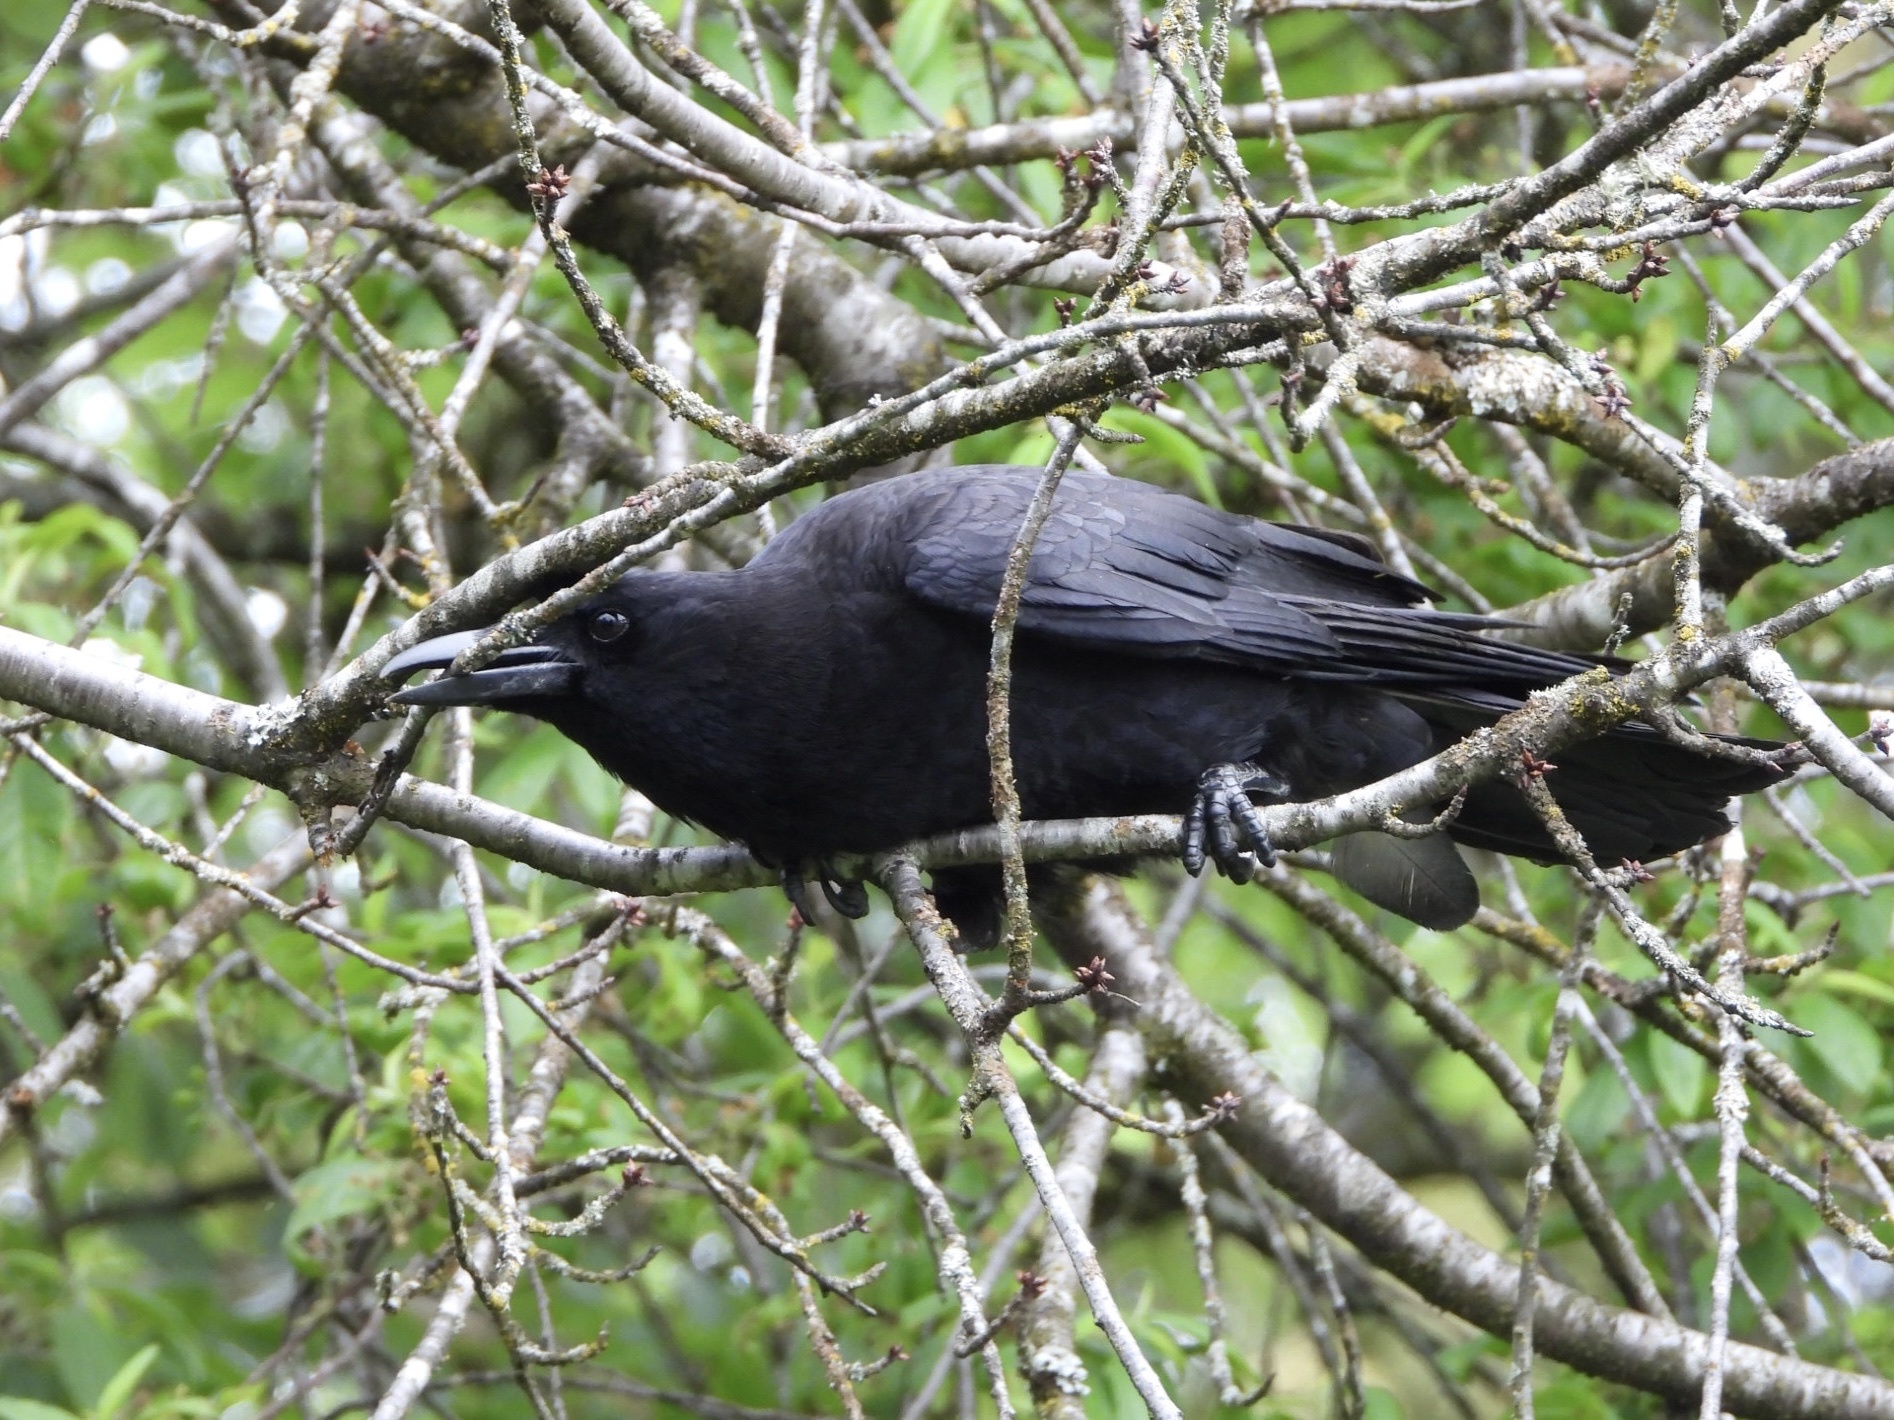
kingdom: Animalia
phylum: Chordata
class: Aves
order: Passeriformes
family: Corvidae
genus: Corvus
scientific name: Corvus brachyrhynchos
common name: American crow
